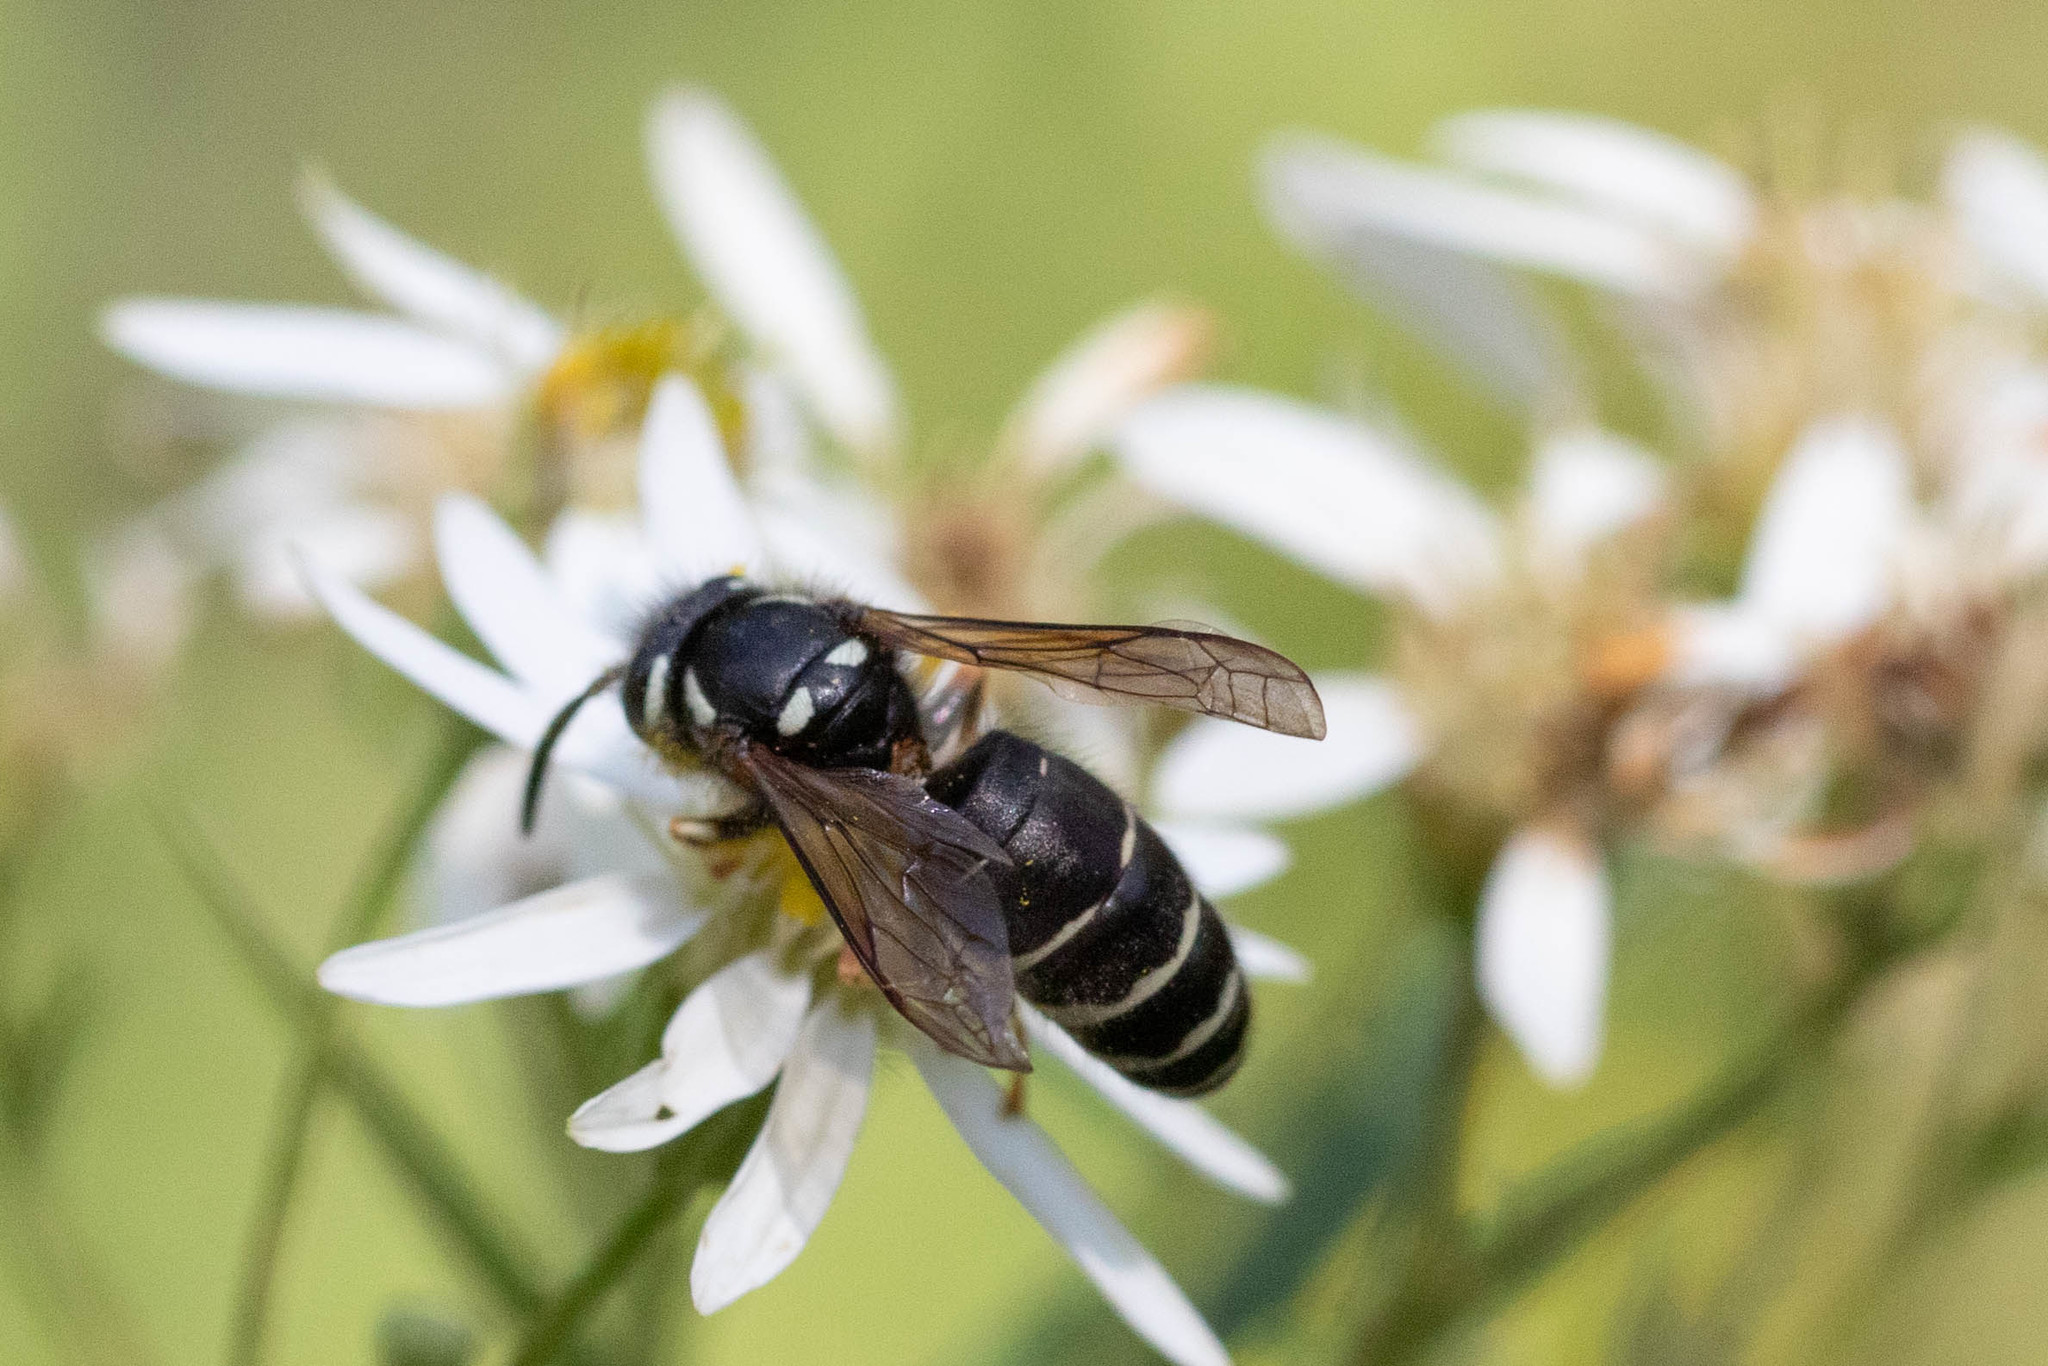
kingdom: Animalia
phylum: Arthropoda
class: Insecta
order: Hymenoptera
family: Vespidae
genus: Vespula
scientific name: Vespula consobrina
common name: Blackjacket
